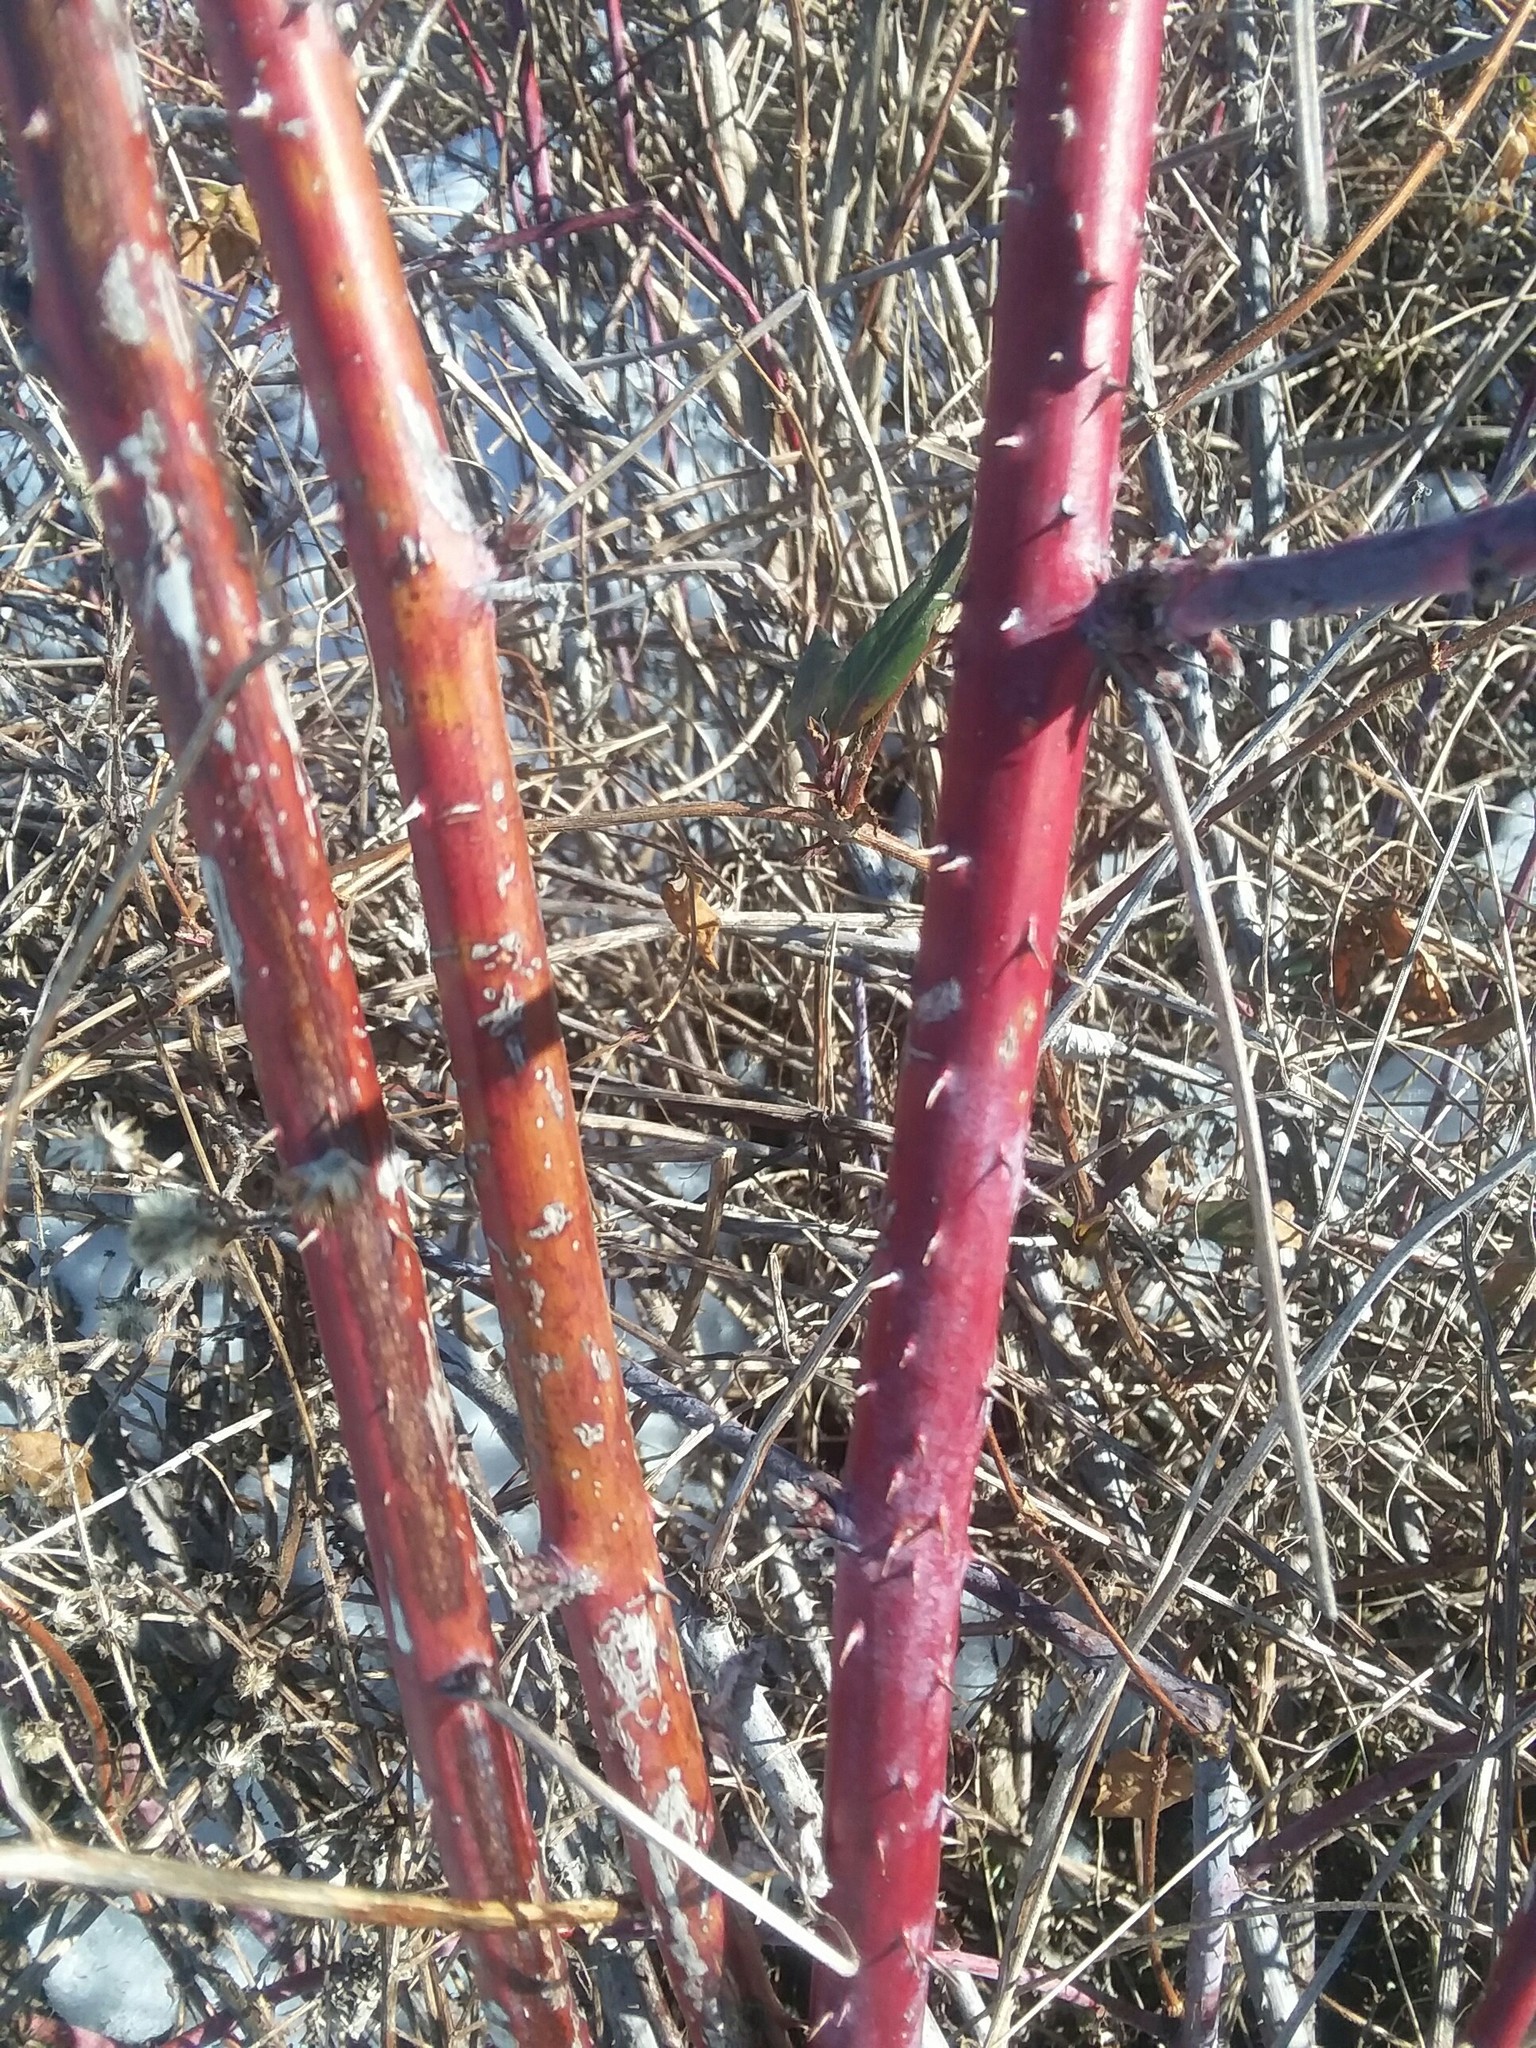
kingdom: Plantae
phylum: Tracheophyta
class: Magnoliopsida
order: Rosales
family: Rosaceae
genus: Rubus
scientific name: Rubus occidentalis
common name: Black raspberry
